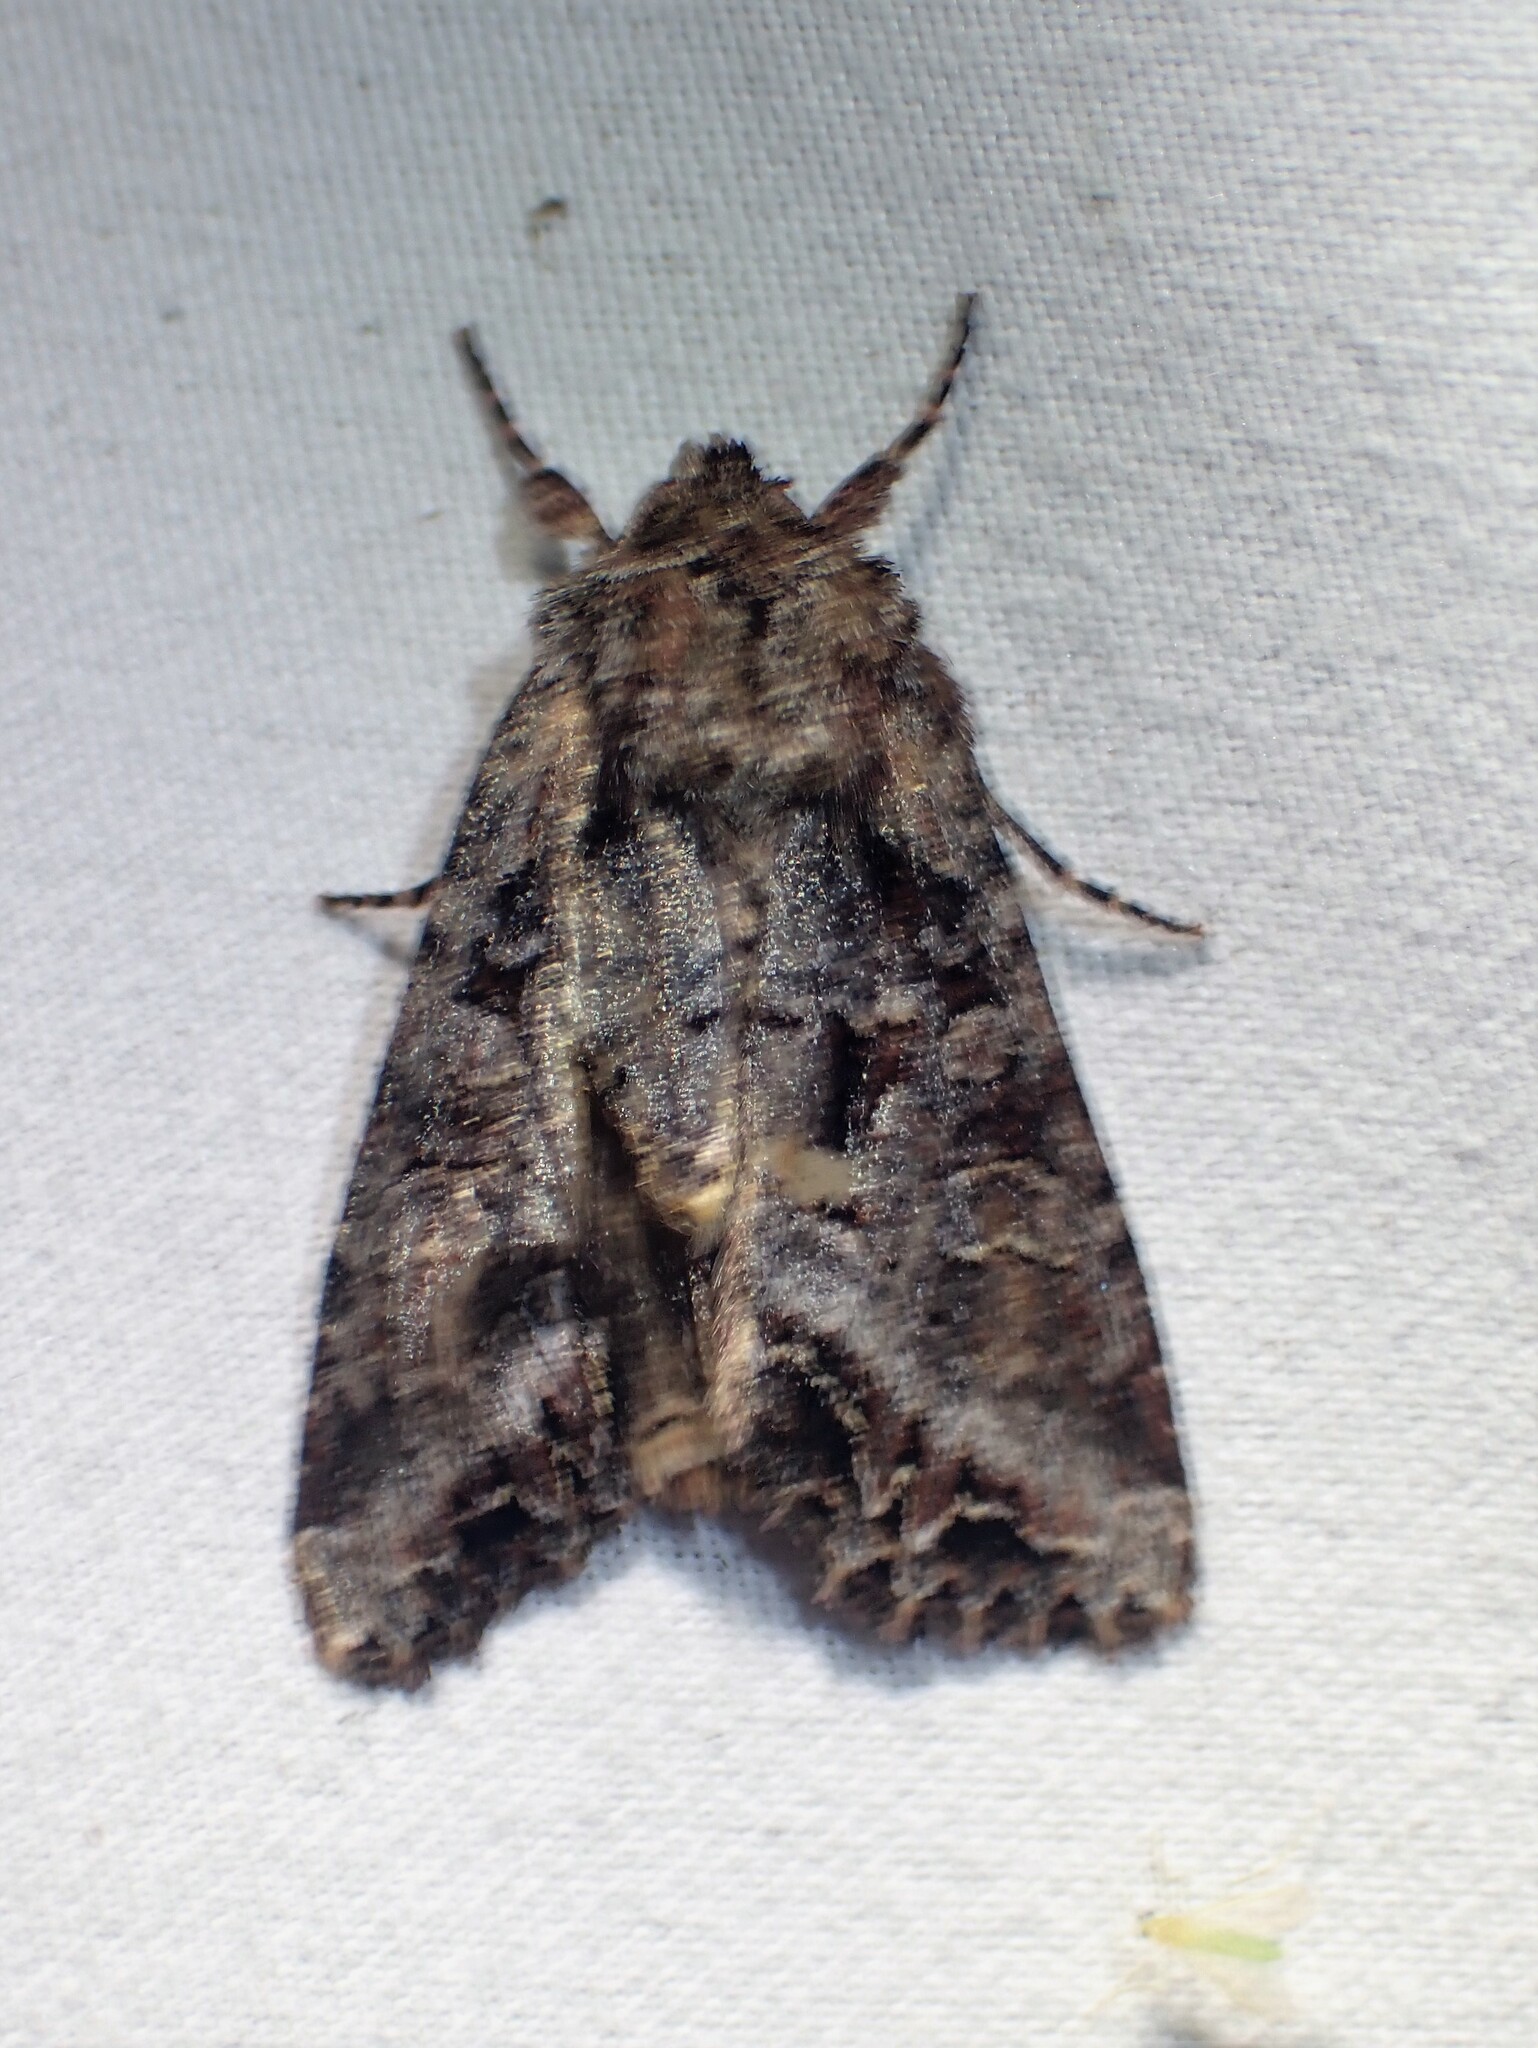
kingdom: Animalia
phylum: Arthropoda
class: Insecta
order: Lepidoptera
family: Noctuidae
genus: Lacanobia
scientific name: Lacanobia grandis
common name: Grand arches moth
